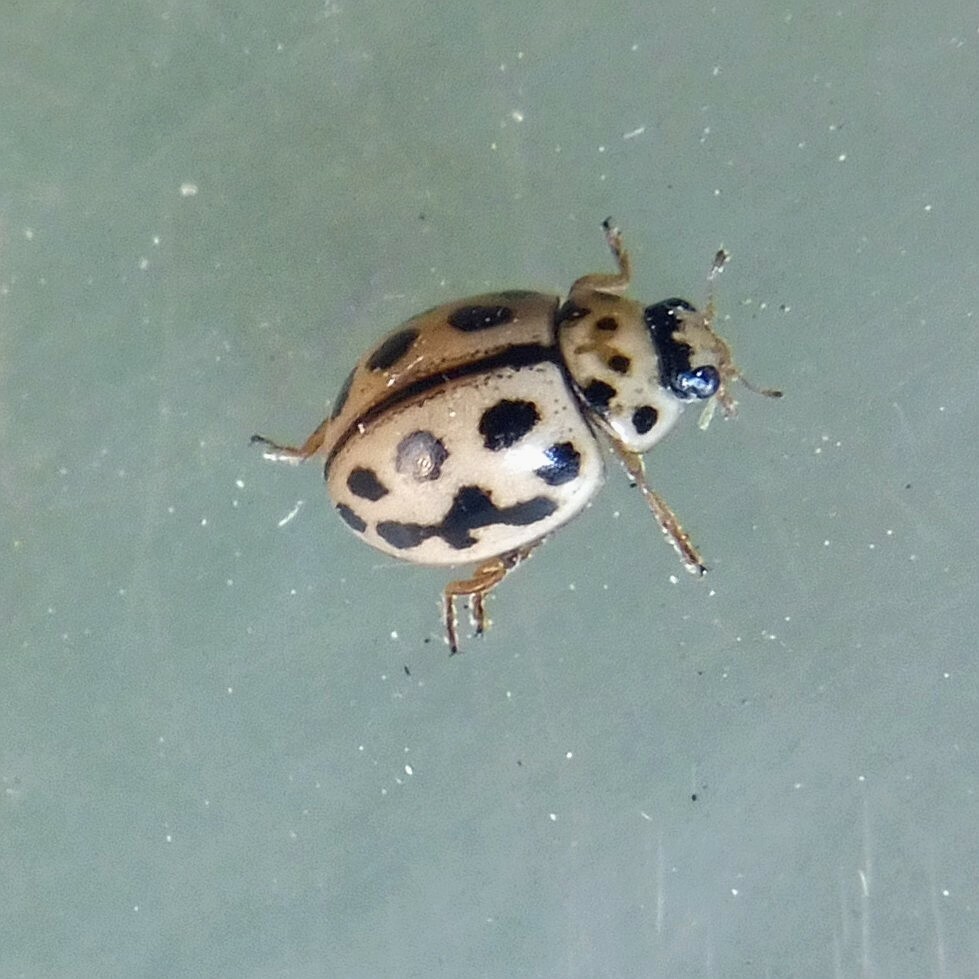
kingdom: Animalia
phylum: Arthropoda
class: Insecta
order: Coleoptera
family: Coccinellidae
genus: Tytthaspis
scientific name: Tytthaspis sedecimpunctata
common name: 16-spot ladybird
